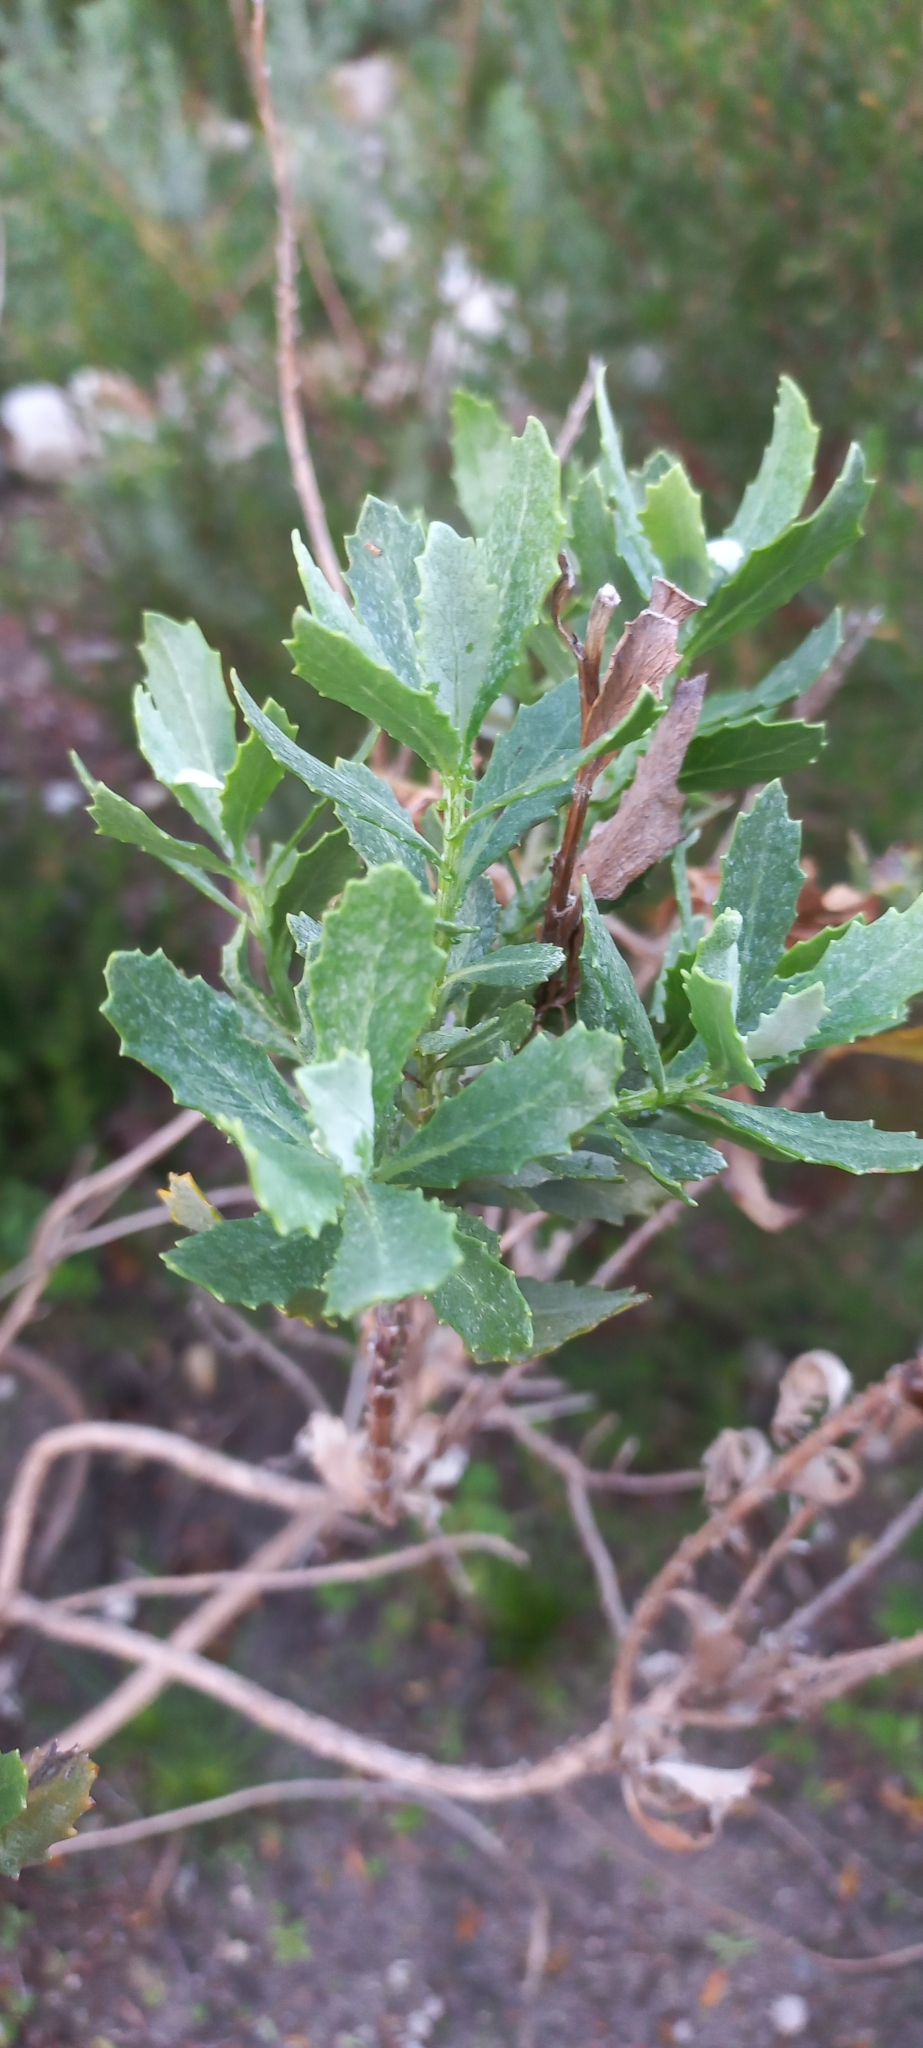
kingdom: Plantae
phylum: Tracheophyta
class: Magnoliopsida
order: Asterales
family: Asteraceae
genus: Senecio
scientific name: Senecio halimifolius
